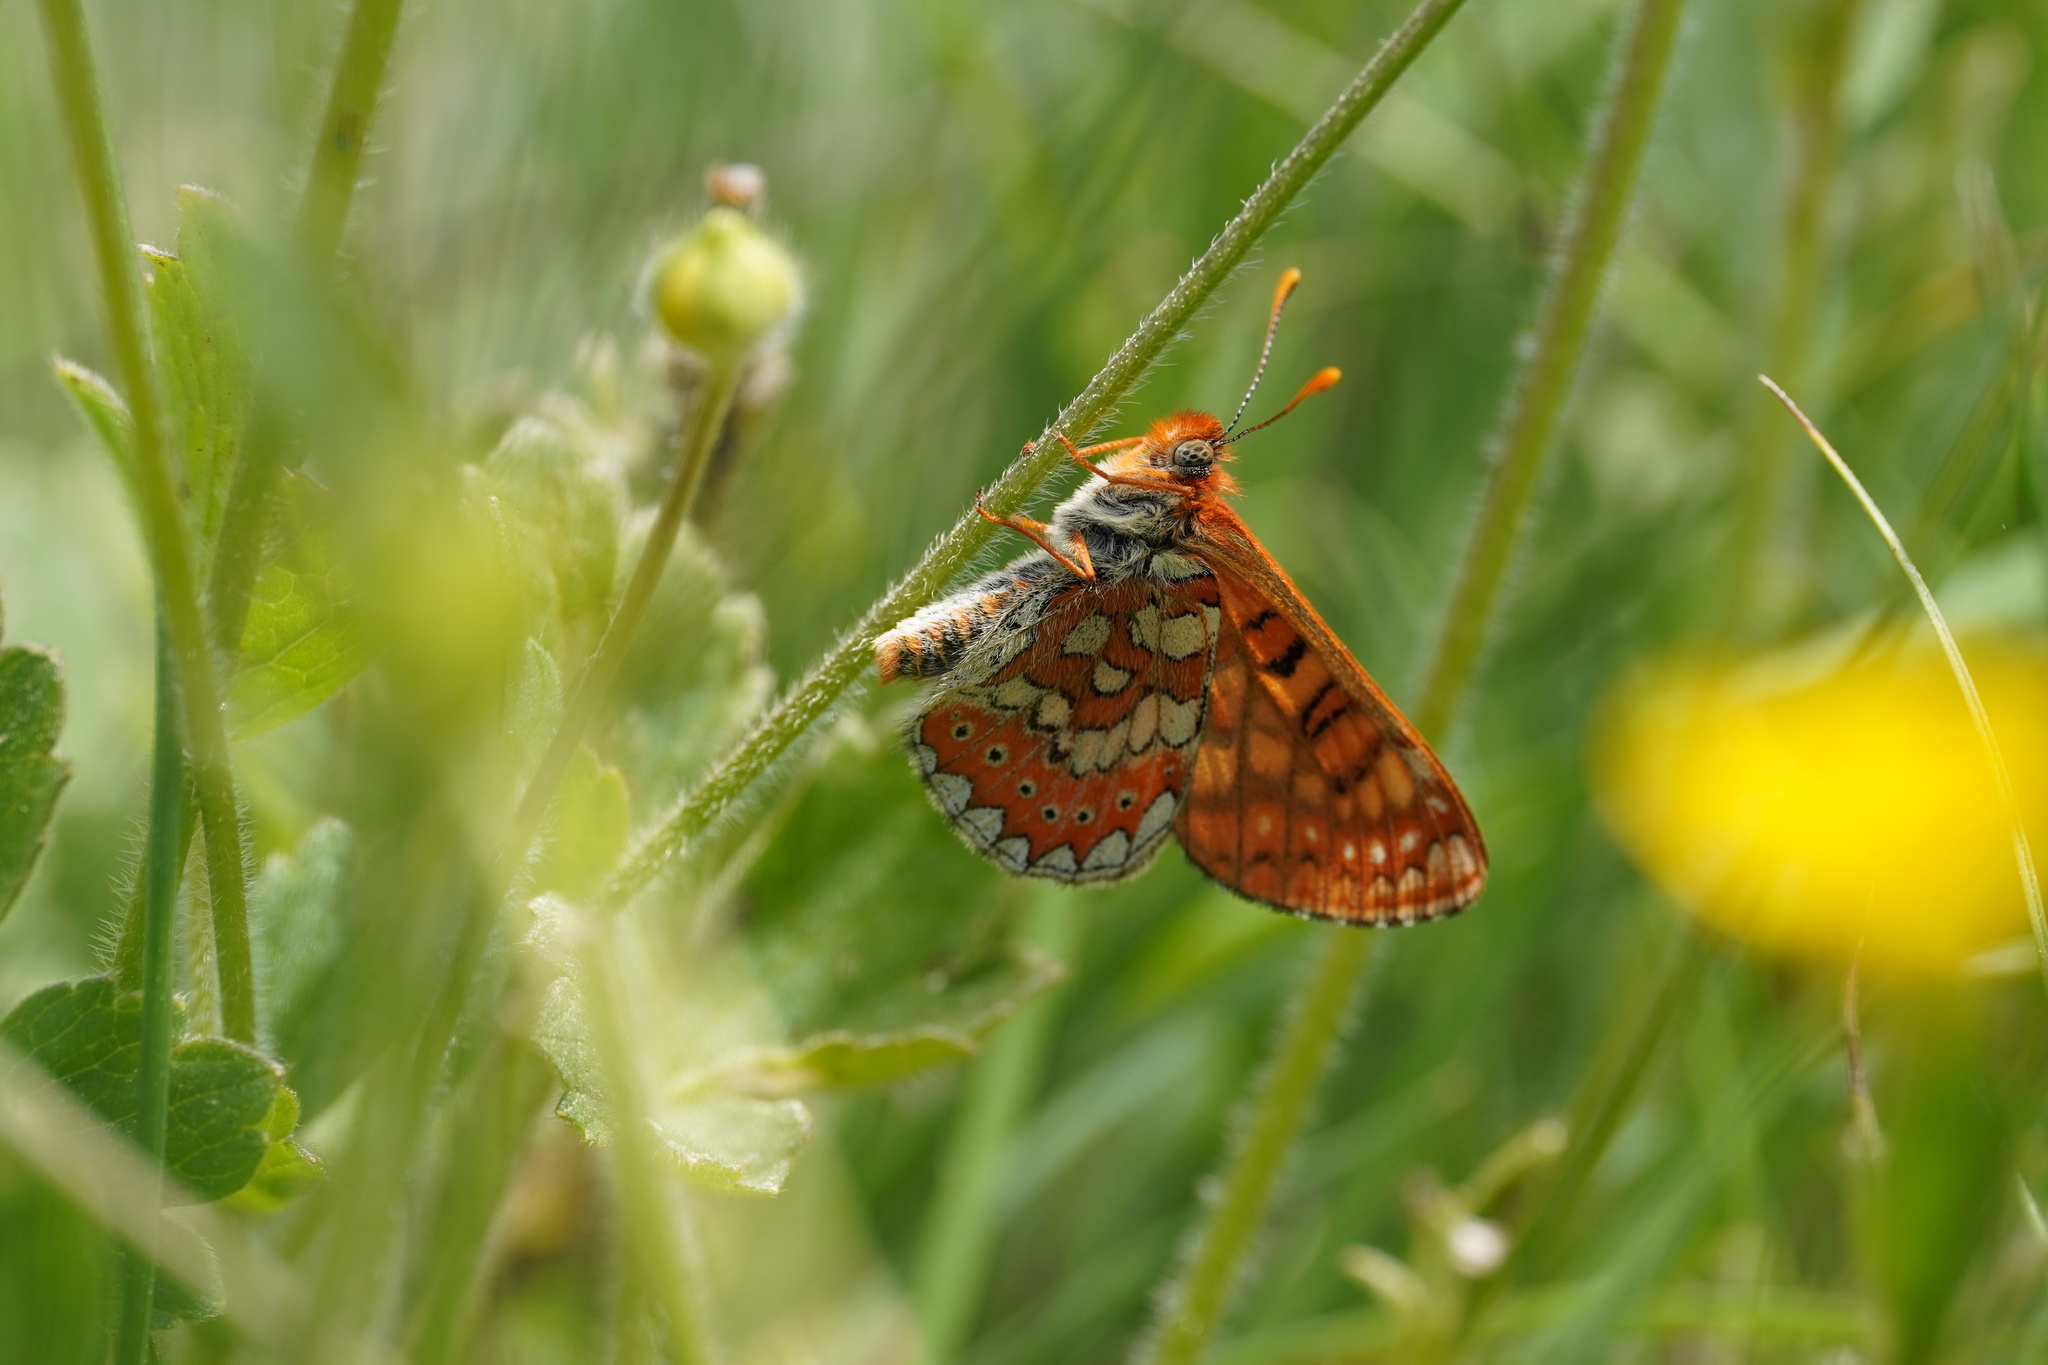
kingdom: Animalia
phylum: Arthropoda
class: Insecta
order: Lepidoptera
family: Nymphalidae
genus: Euphydryas
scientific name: Euphydryas aurinia
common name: Marsh fritillary
